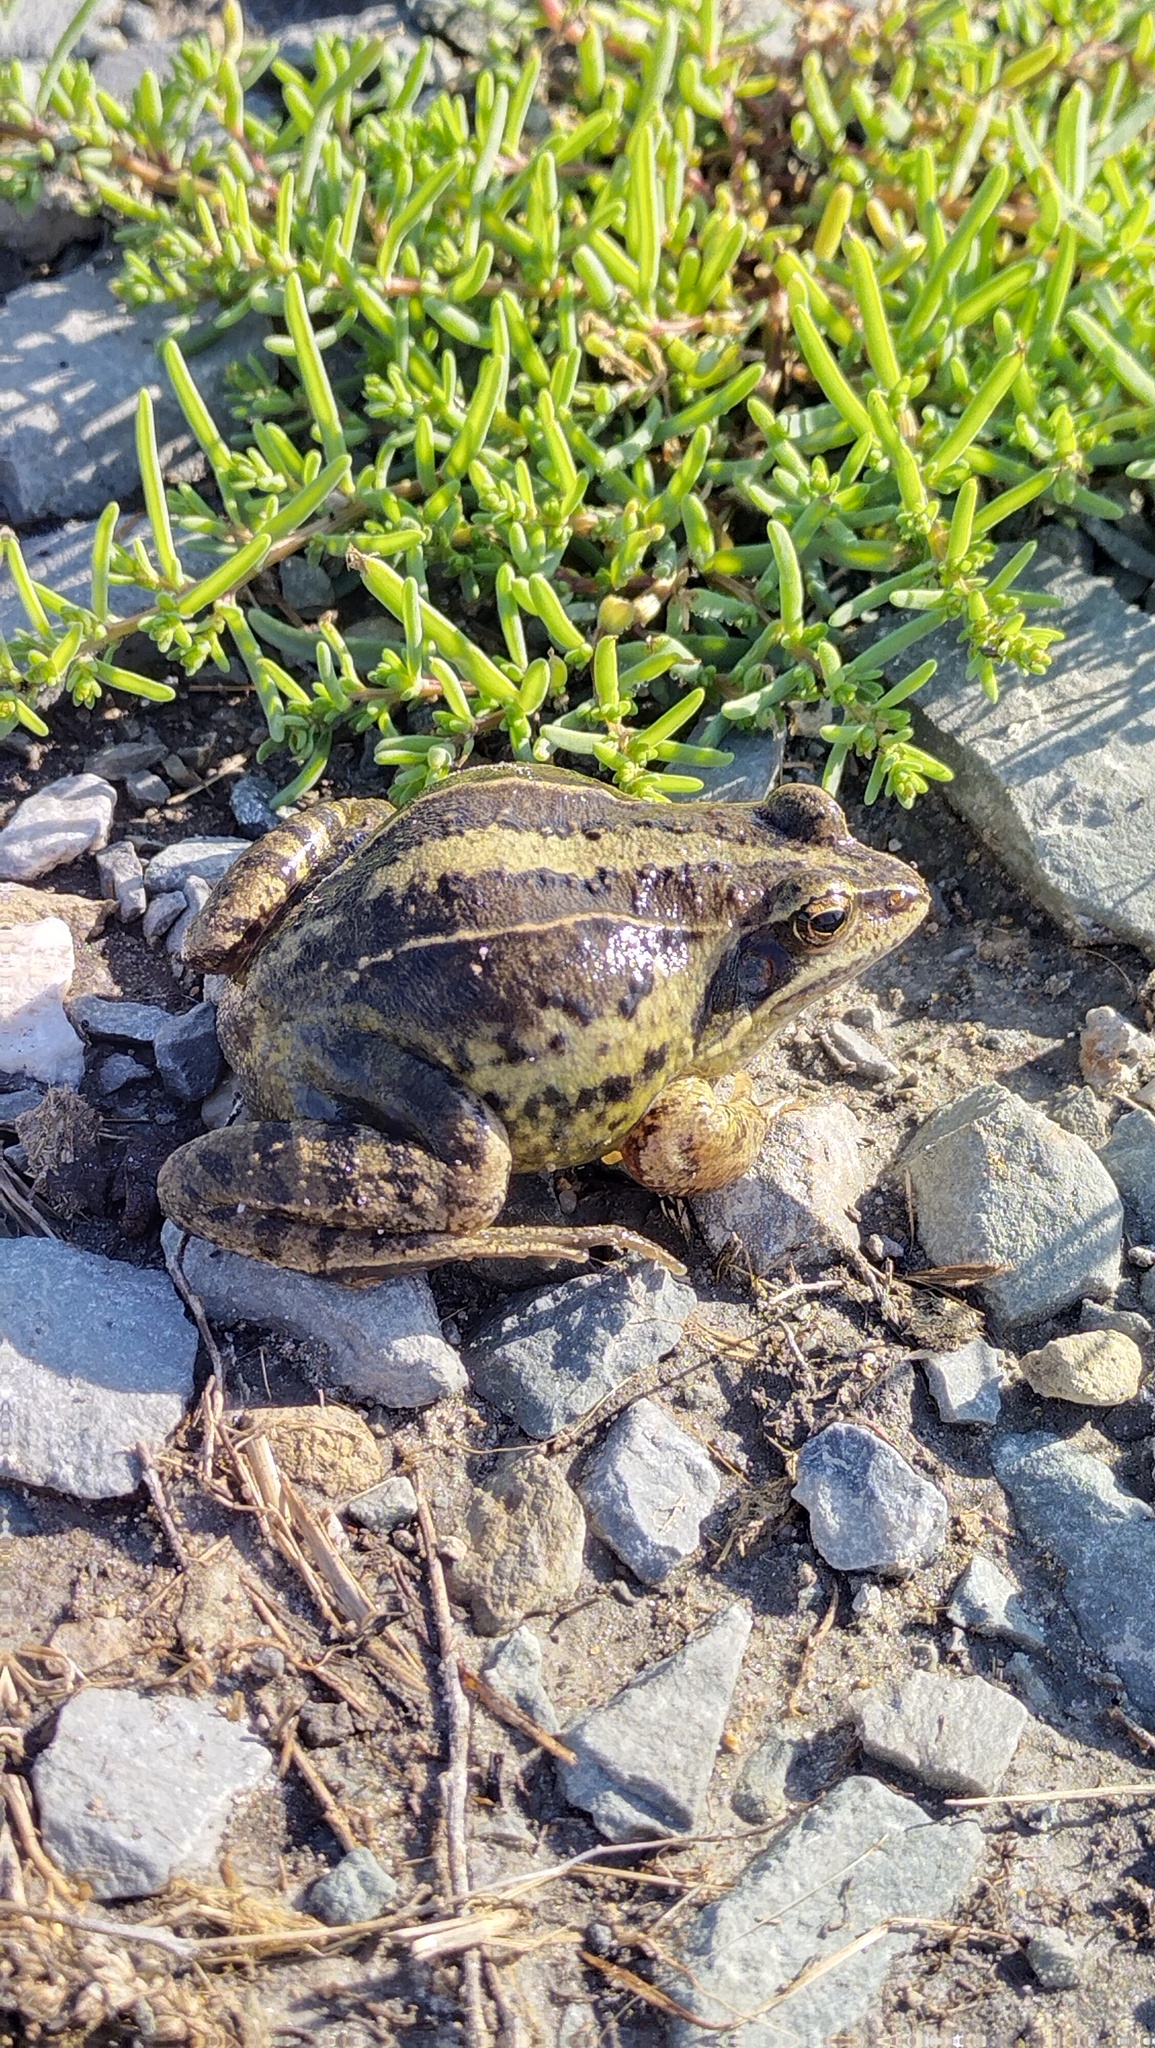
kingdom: Animalia
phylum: Chordata
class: Amphibia
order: Anura
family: Ranidae
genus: Rana
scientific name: Rana arvalis
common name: Moor frog
